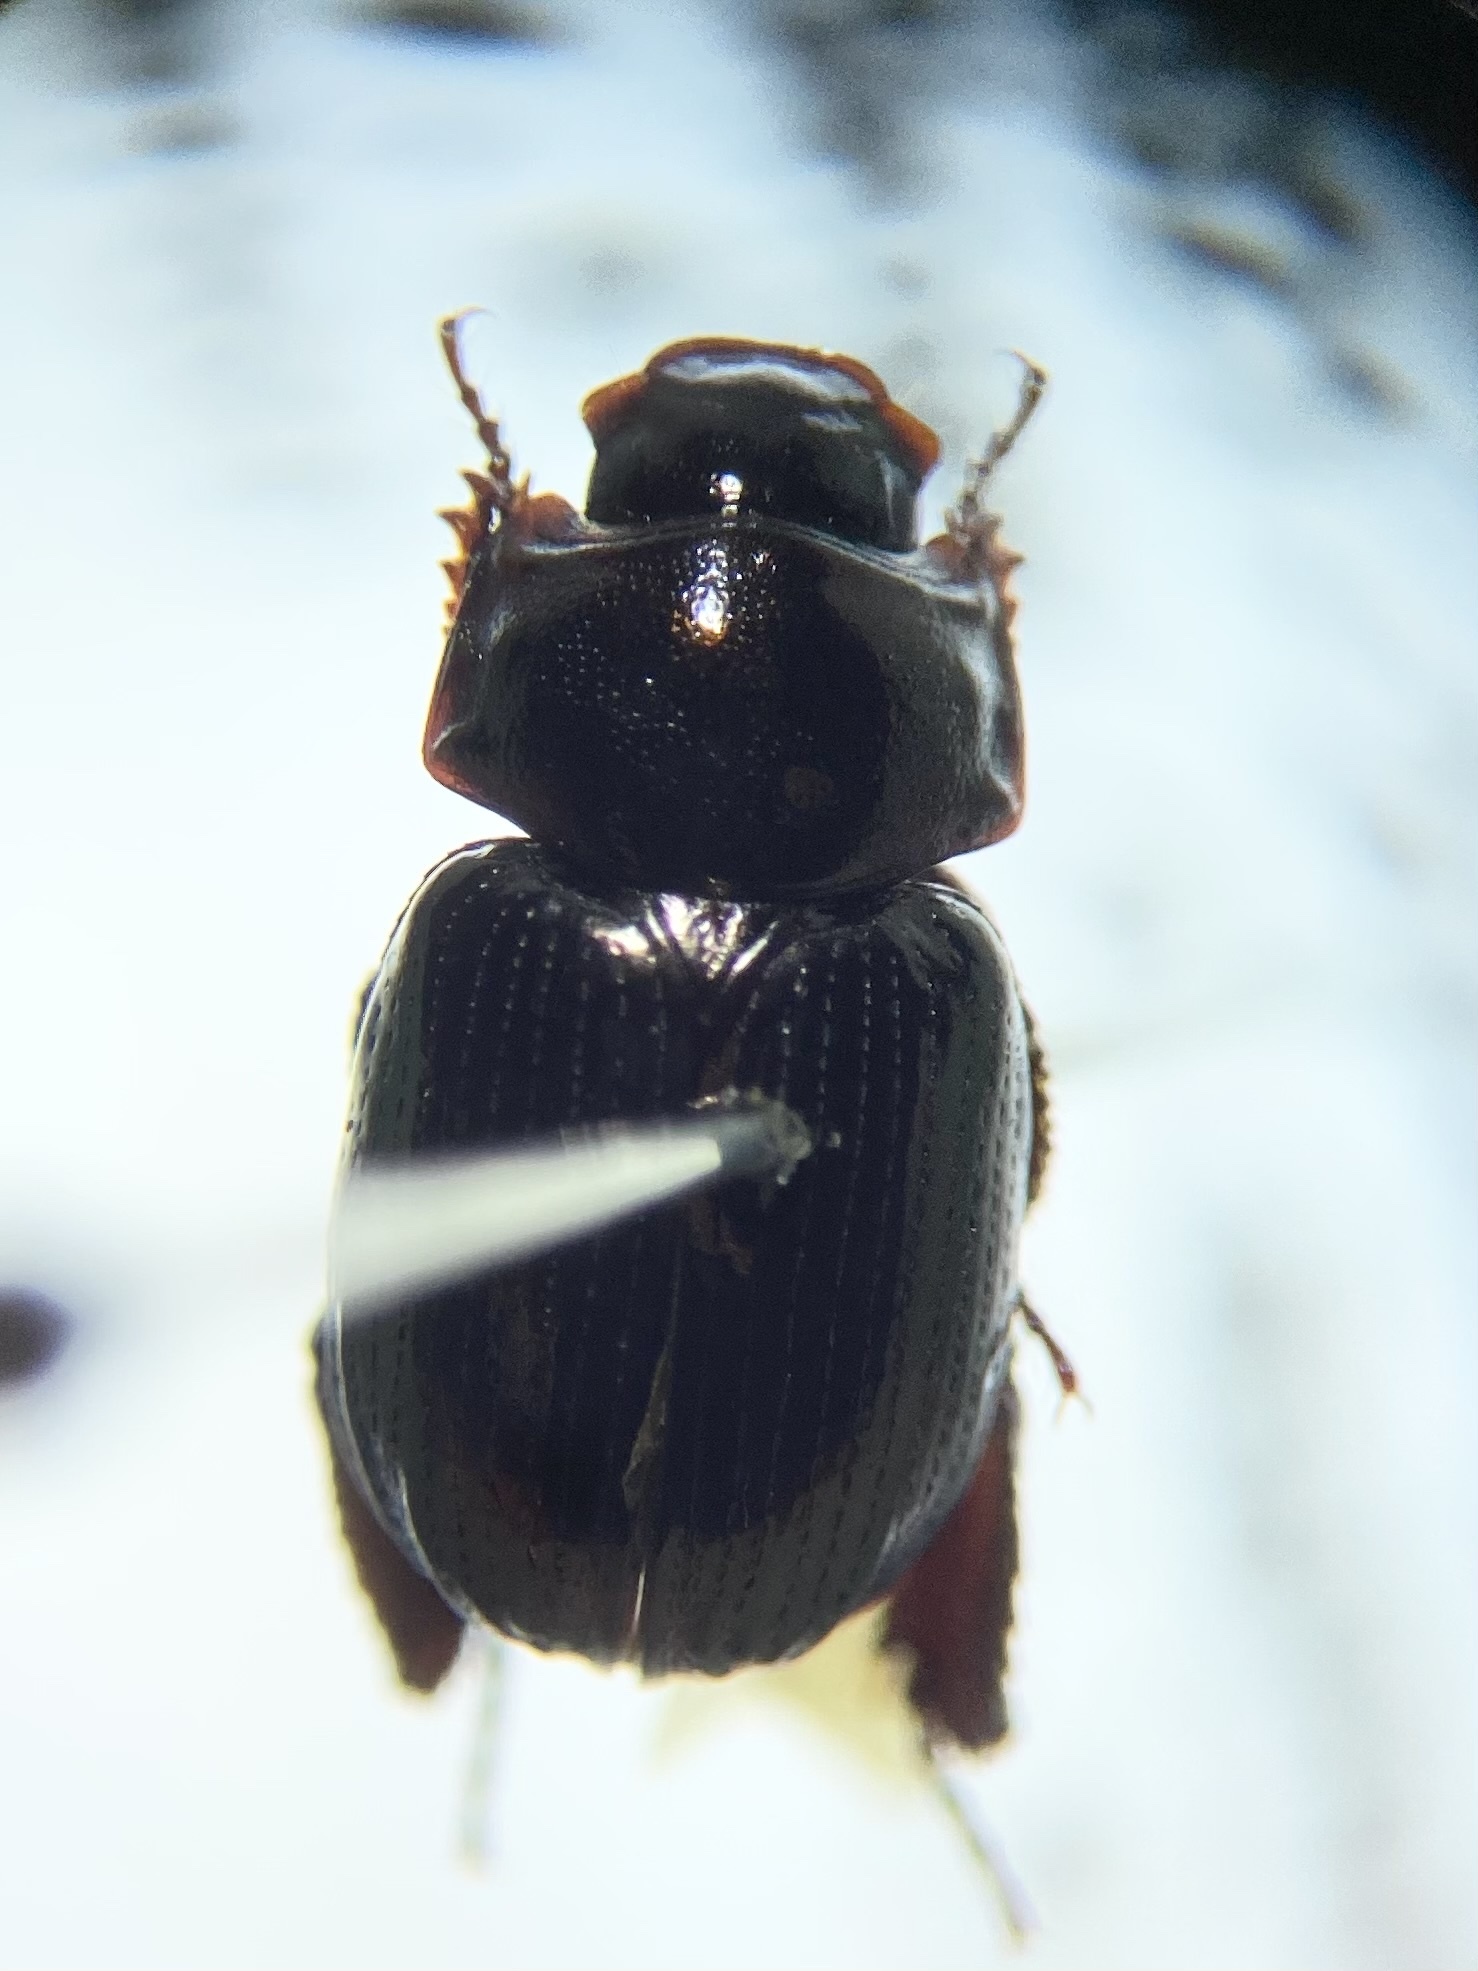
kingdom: Animalia
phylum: Arthropoda
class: Insecta
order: Coleoptera
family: Hybosoridae
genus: Germarostes
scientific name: Germarostes aphodioides
